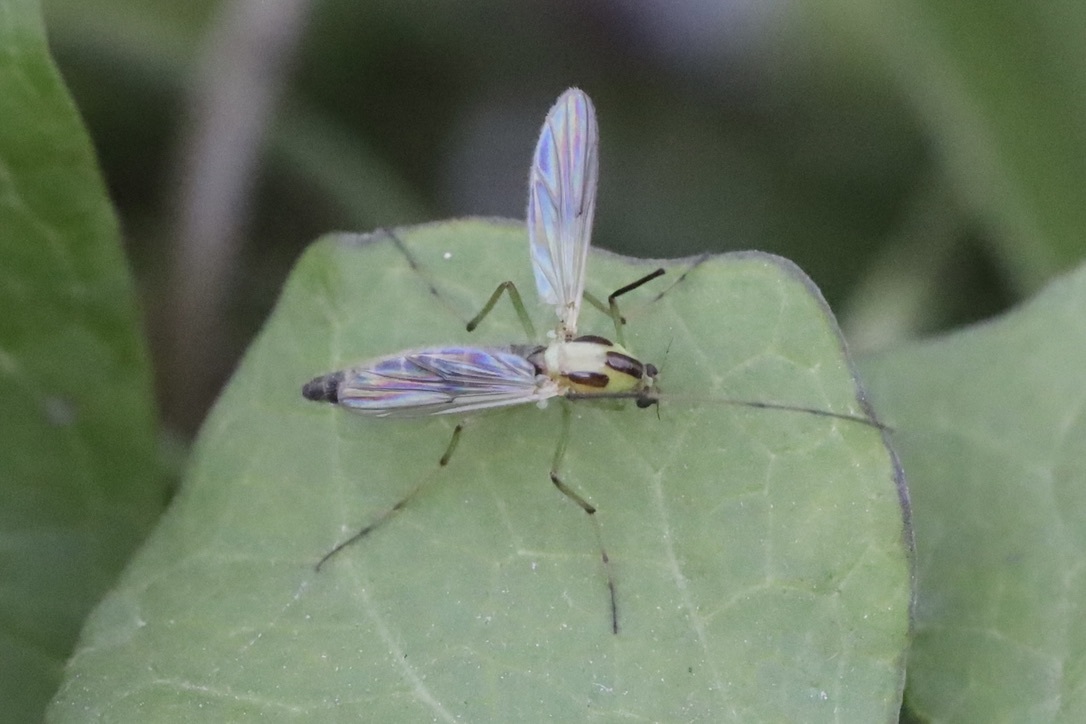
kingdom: Animalia
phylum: Arthropoda
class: Insecta
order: Diptera
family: Chironomidae
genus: Chironomus
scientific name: Chironomus atroviridis
